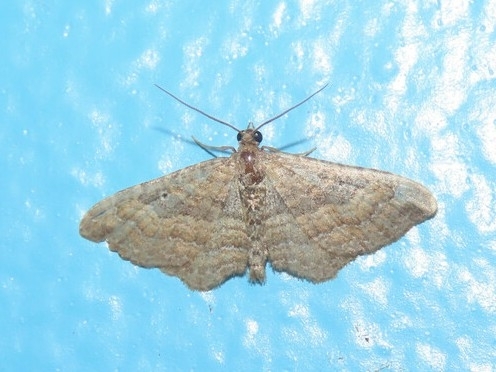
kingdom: Animalia
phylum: Arthropoda
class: Insecta
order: Lepidoptera
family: Geometridae
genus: Orthonama
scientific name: Orthonama obstipata
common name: The gem
